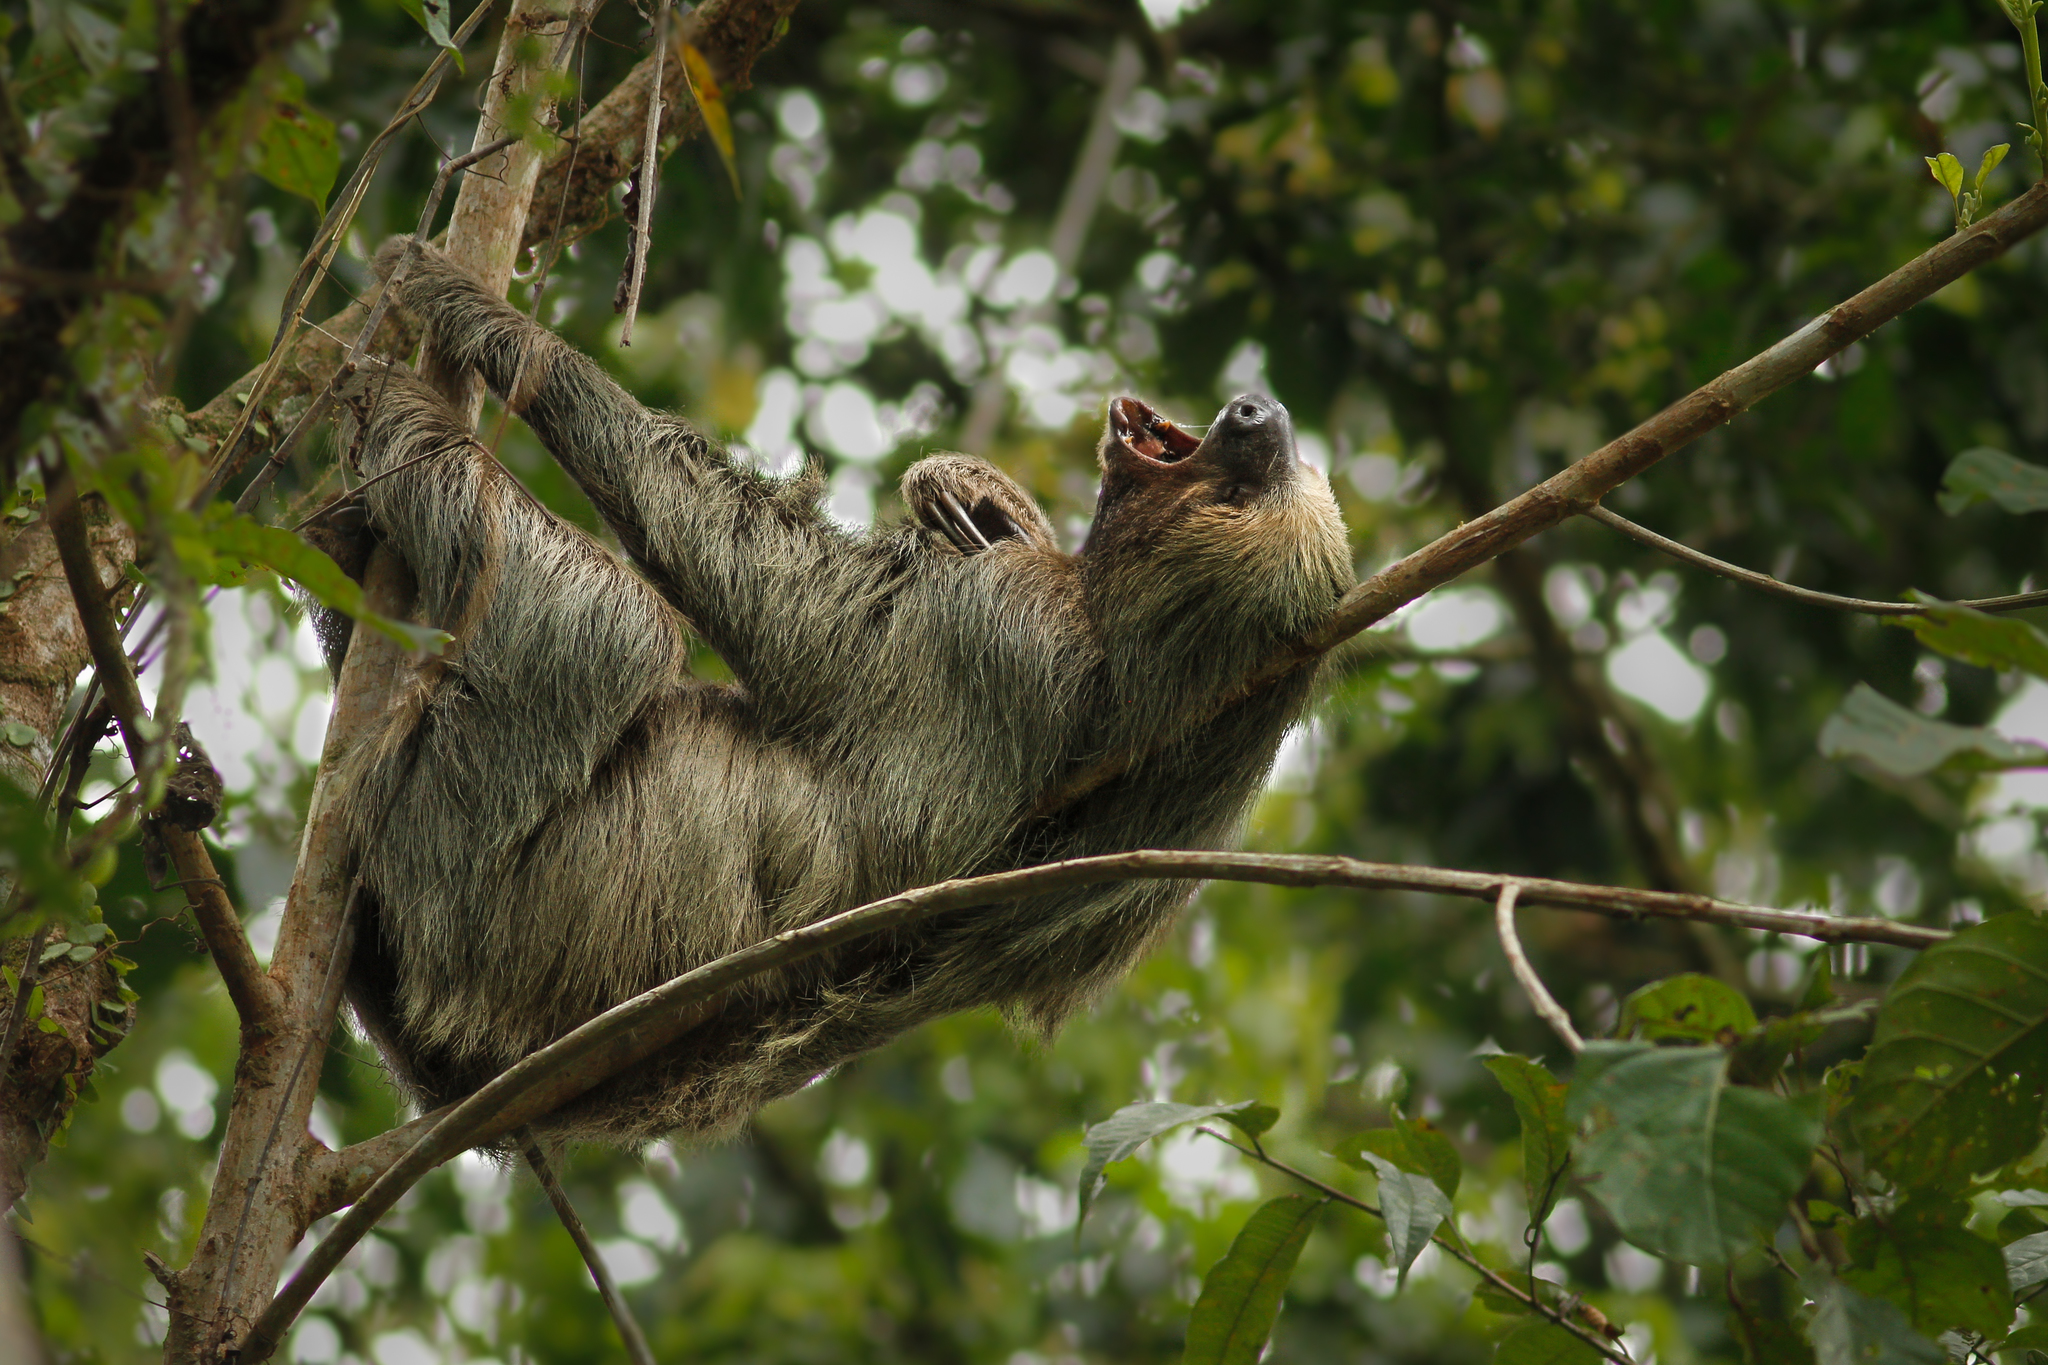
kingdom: Animalia
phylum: Chordata
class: Mammalia
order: Pilosa
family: Megalonychidae
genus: Choloepus
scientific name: Choloepus didactylus
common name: Southern two-toed sloth
